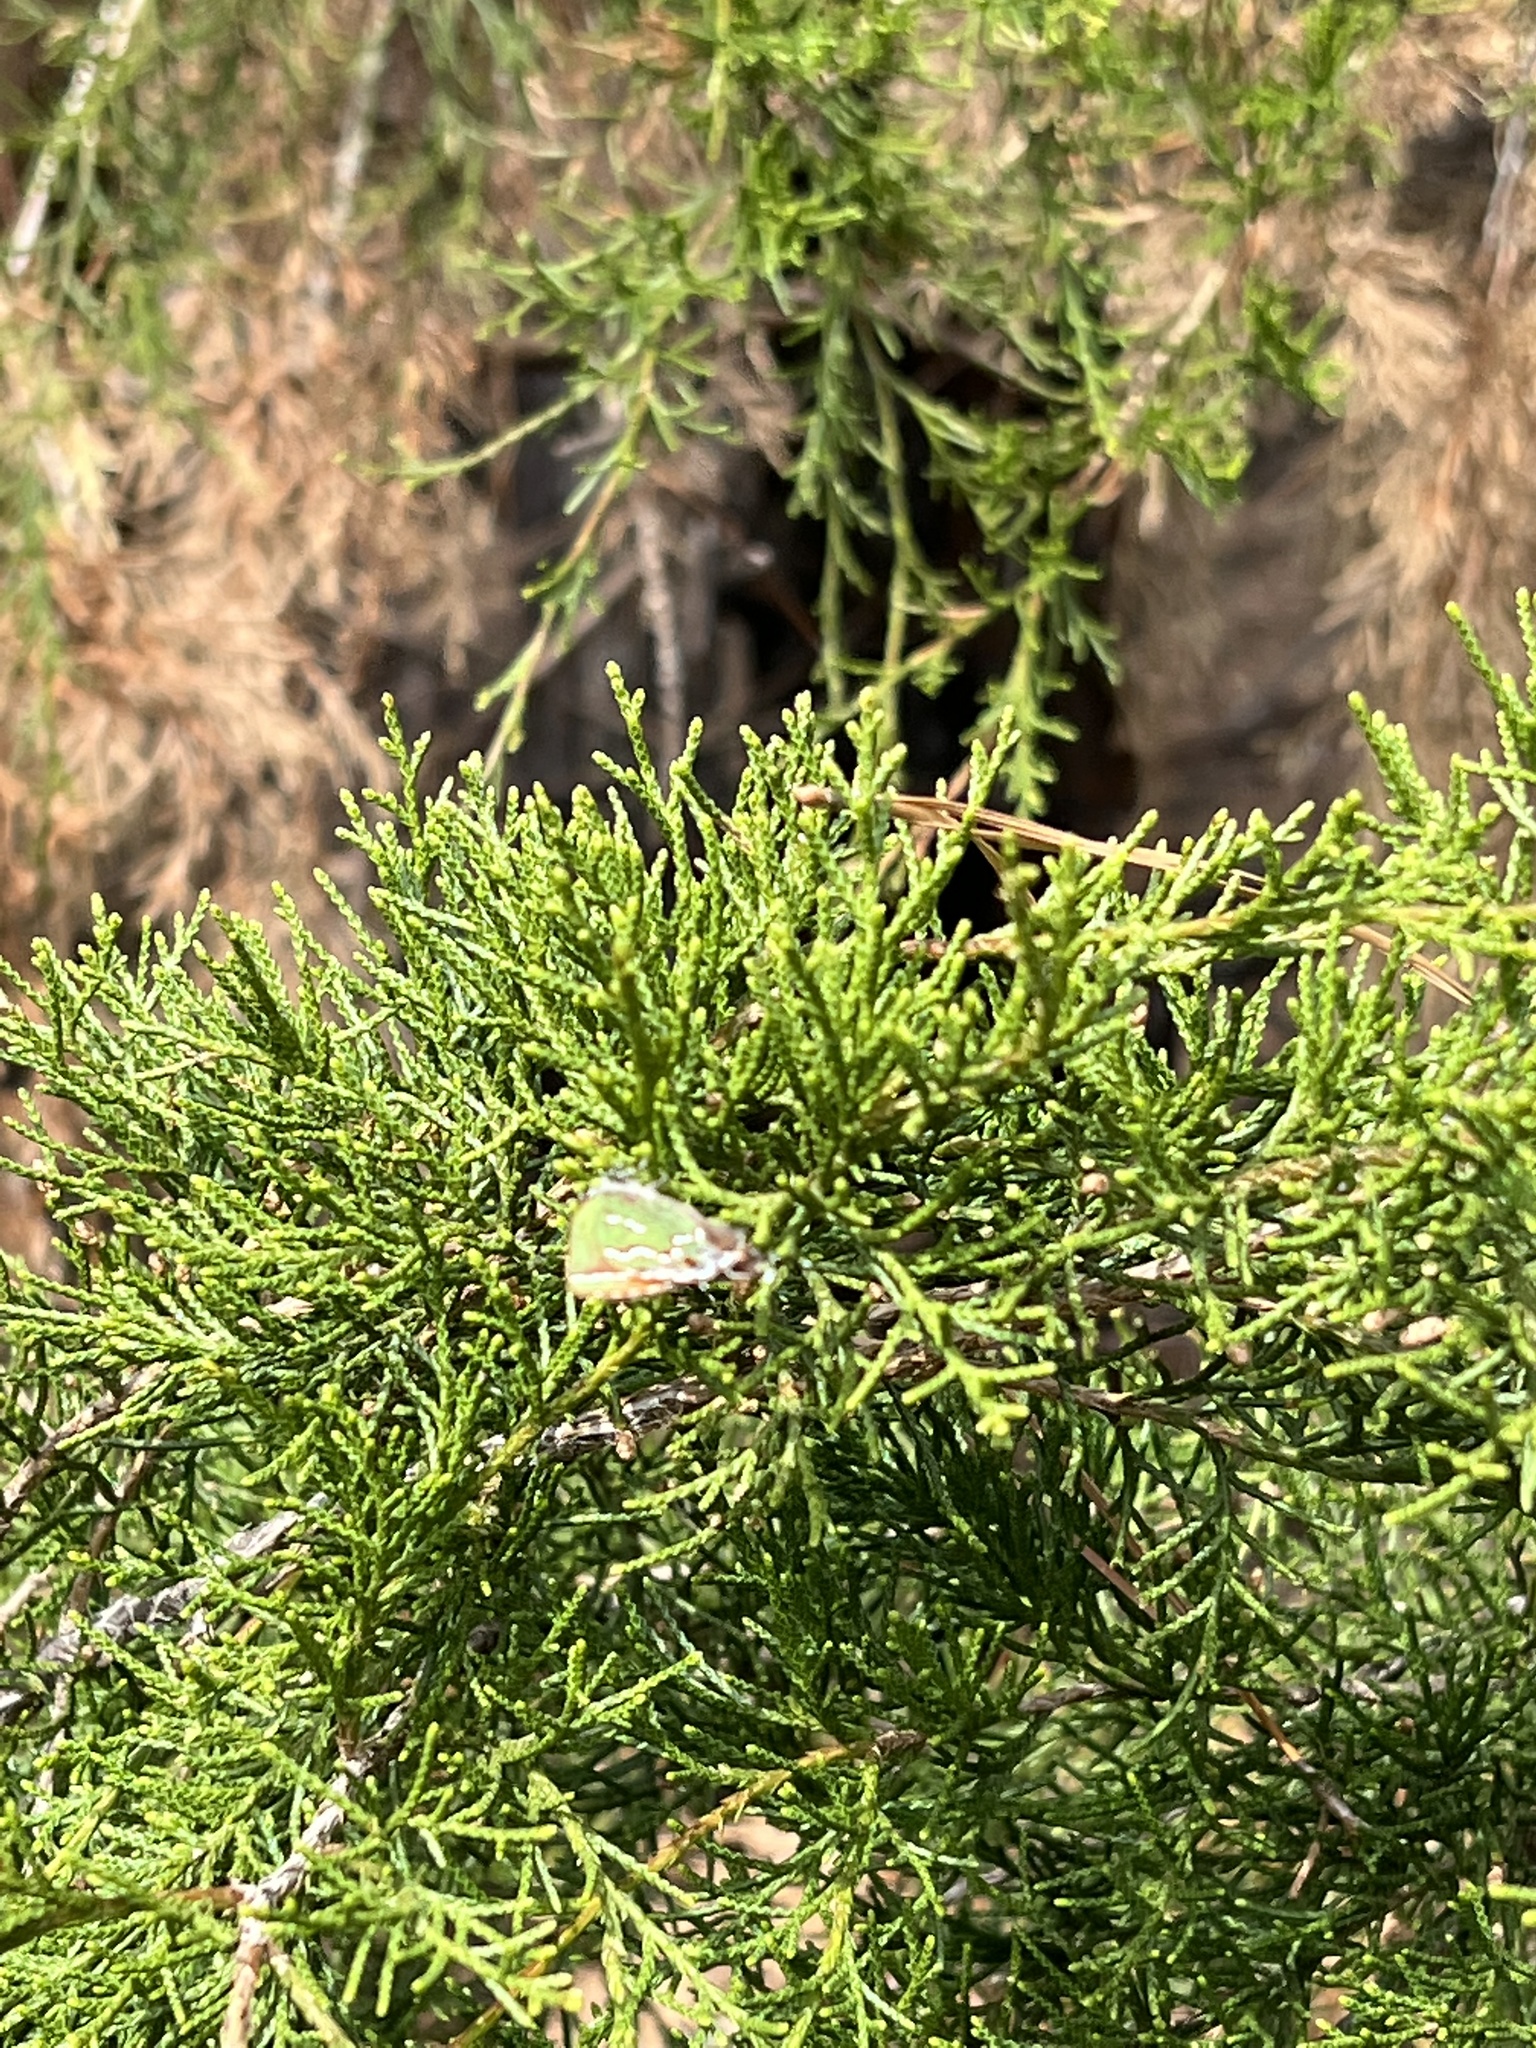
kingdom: Animalia
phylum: Arthropoda
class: Insecta
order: Lepidoptera
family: Lycaenidae
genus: Mitoura
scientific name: Mitoura gryneus
